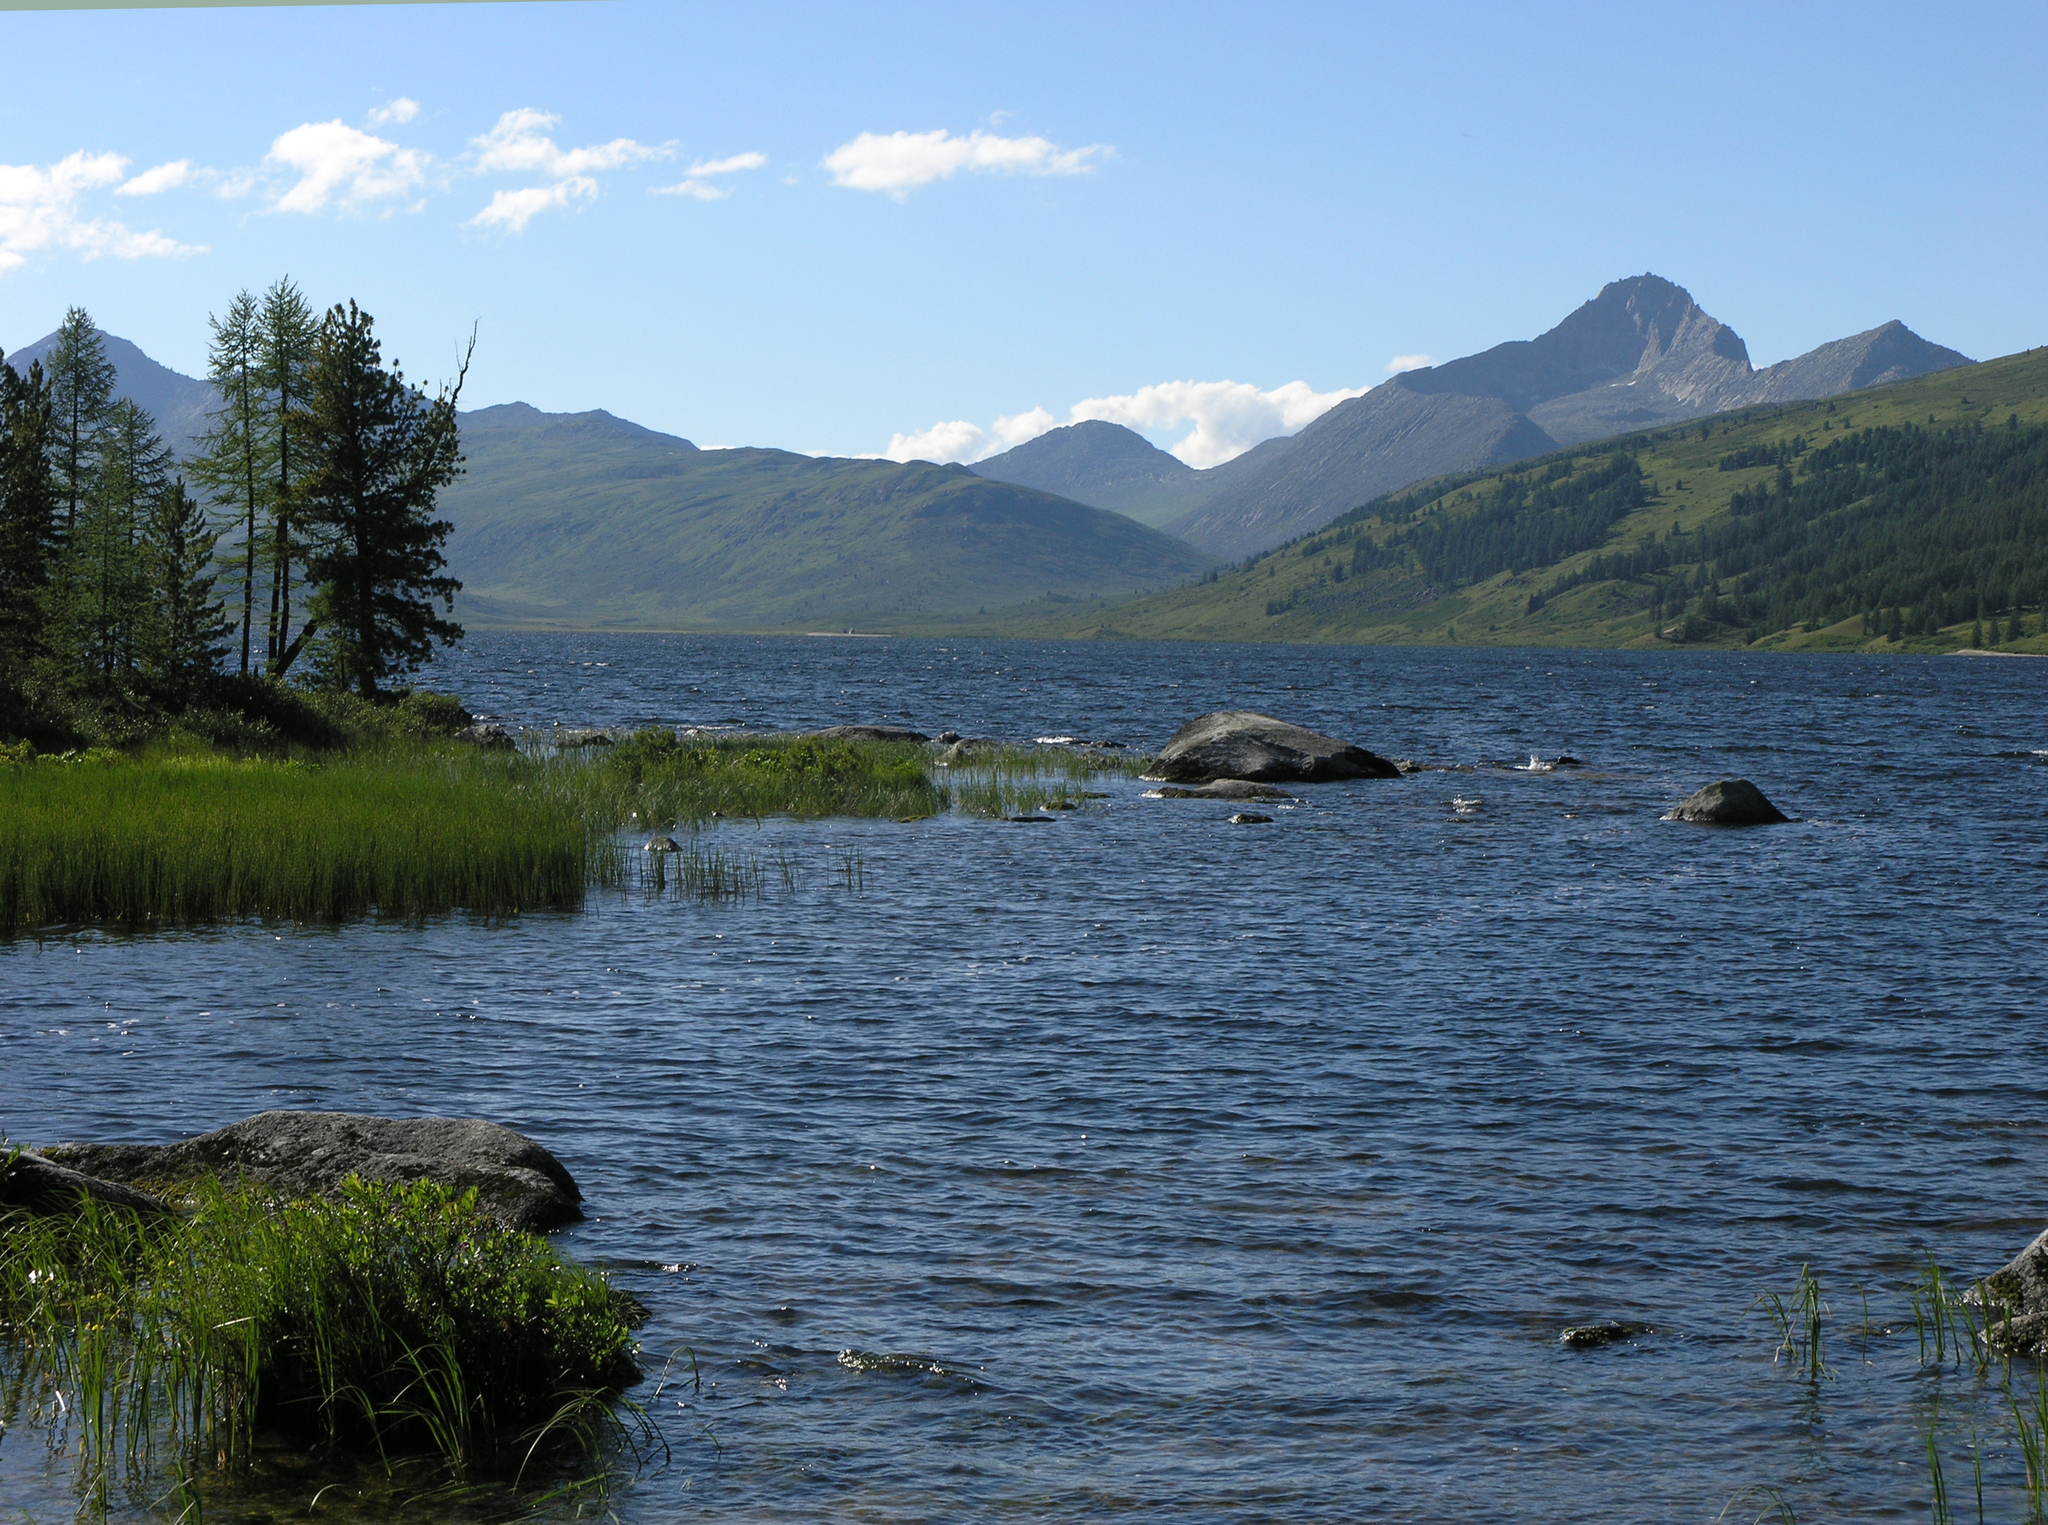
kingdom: Plantae
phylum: Tracheophyta
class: Pinopsida
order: Pinales
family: Pinaceae
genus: Larix
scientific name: Larix sibirica
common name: Siberian larch
